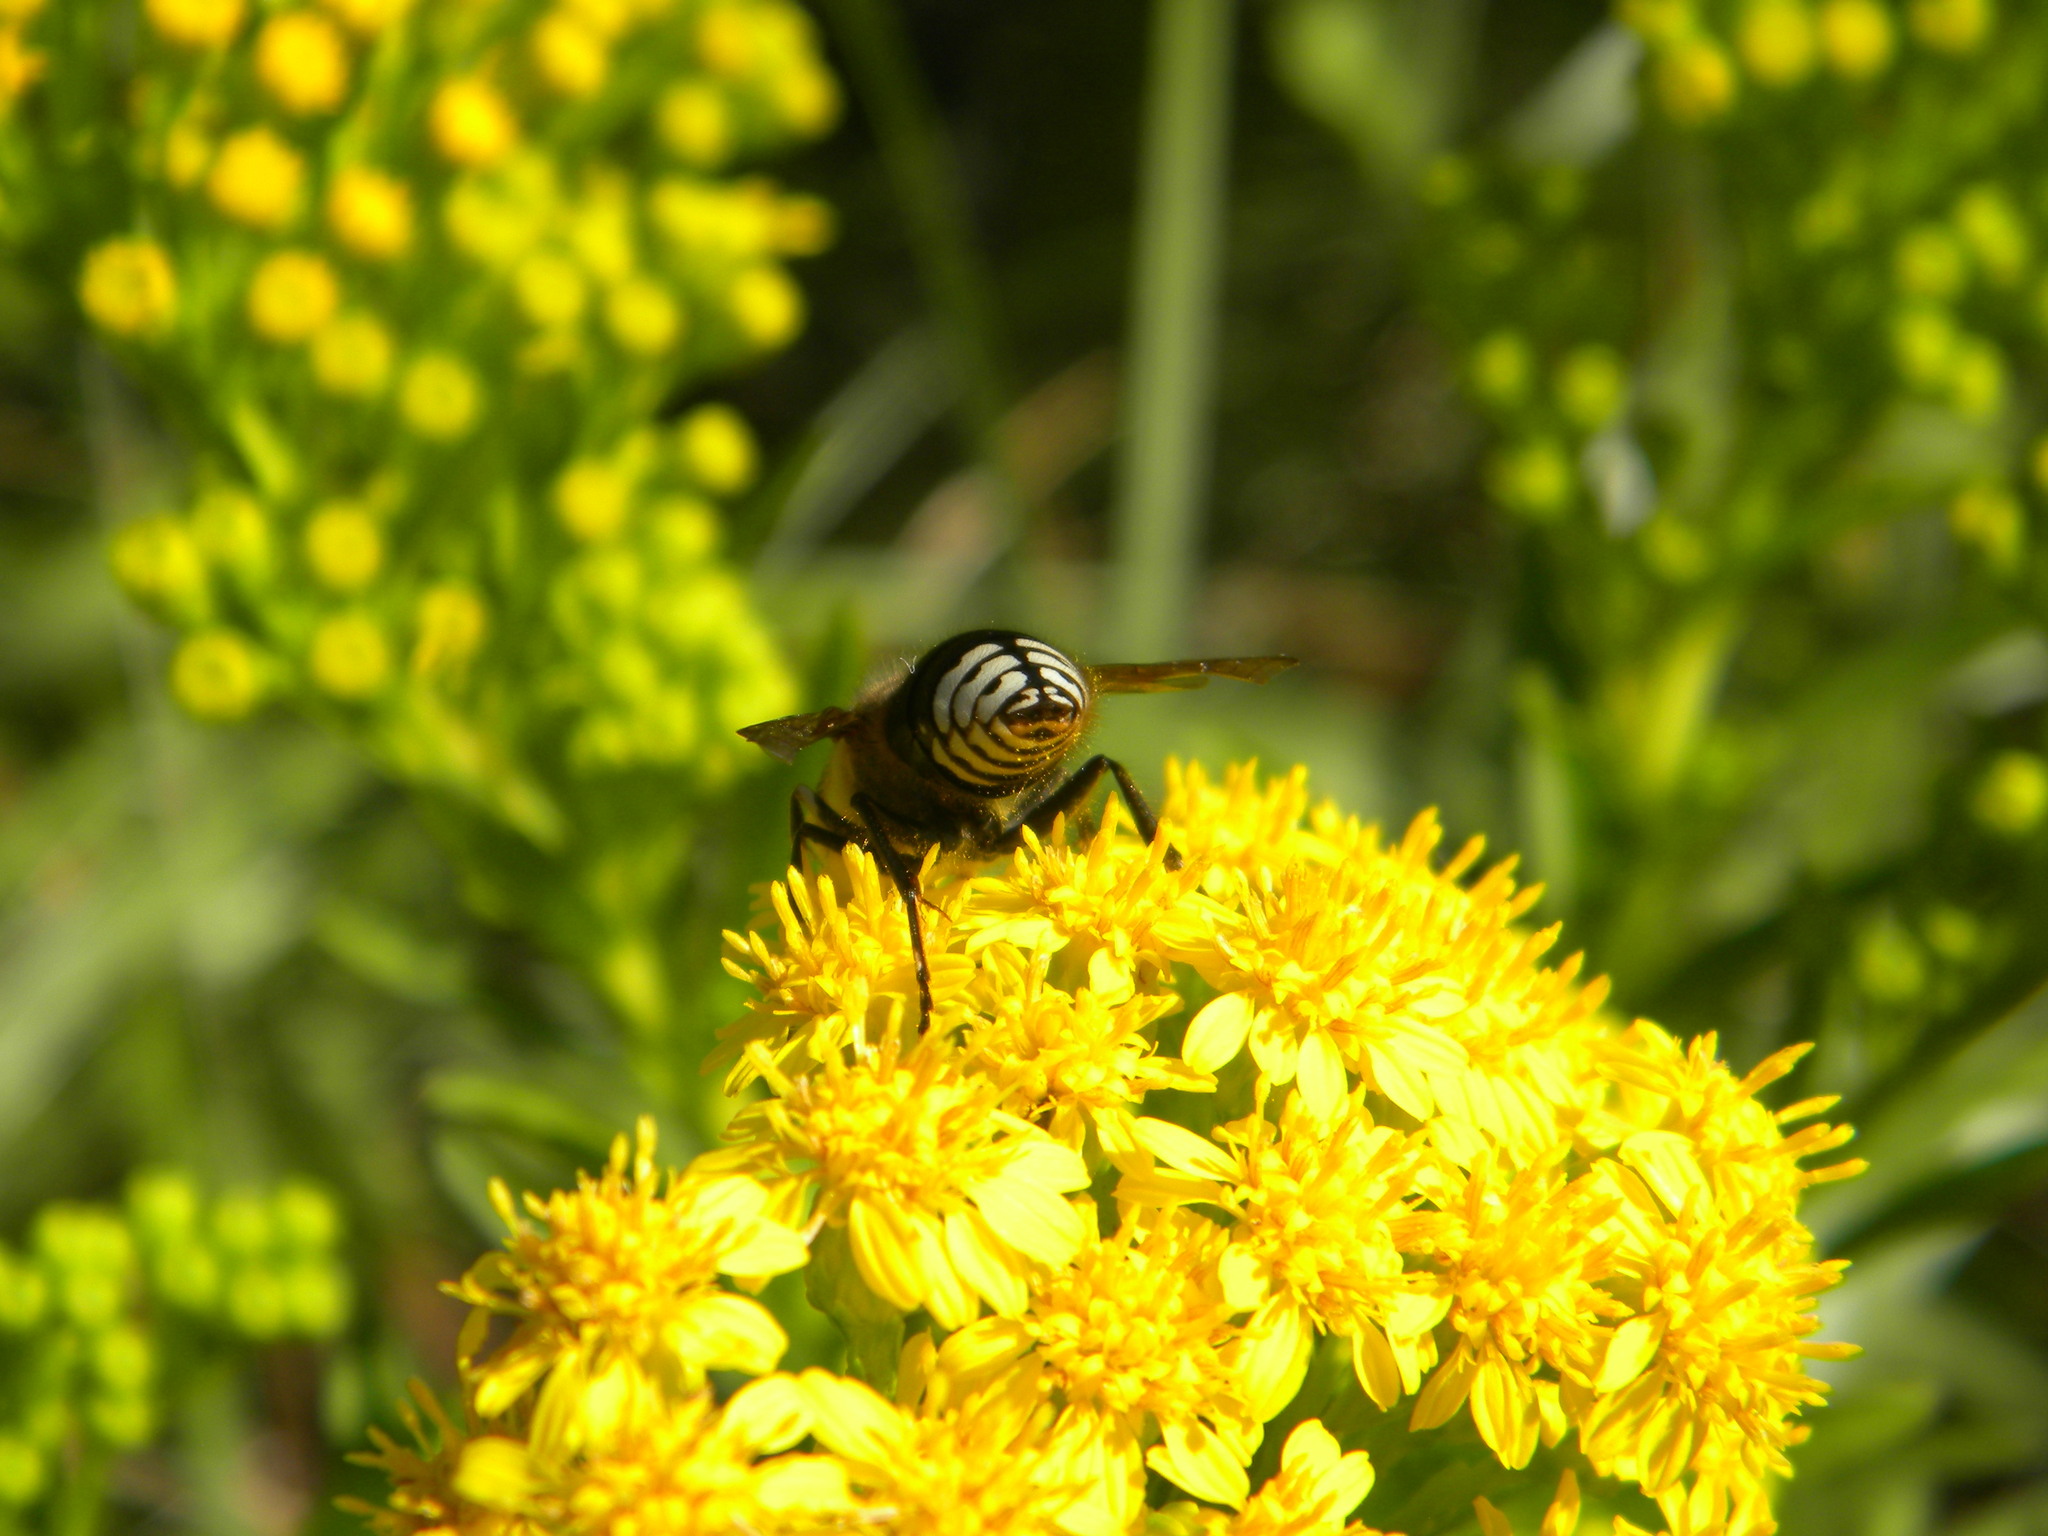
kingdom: Animalia
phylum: Arthropoda
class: Insecta
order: Hymenoptera
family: Vespidae
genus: Dolichovespula
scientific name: Dolichovespula maculata
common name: Bald-faced hornet
